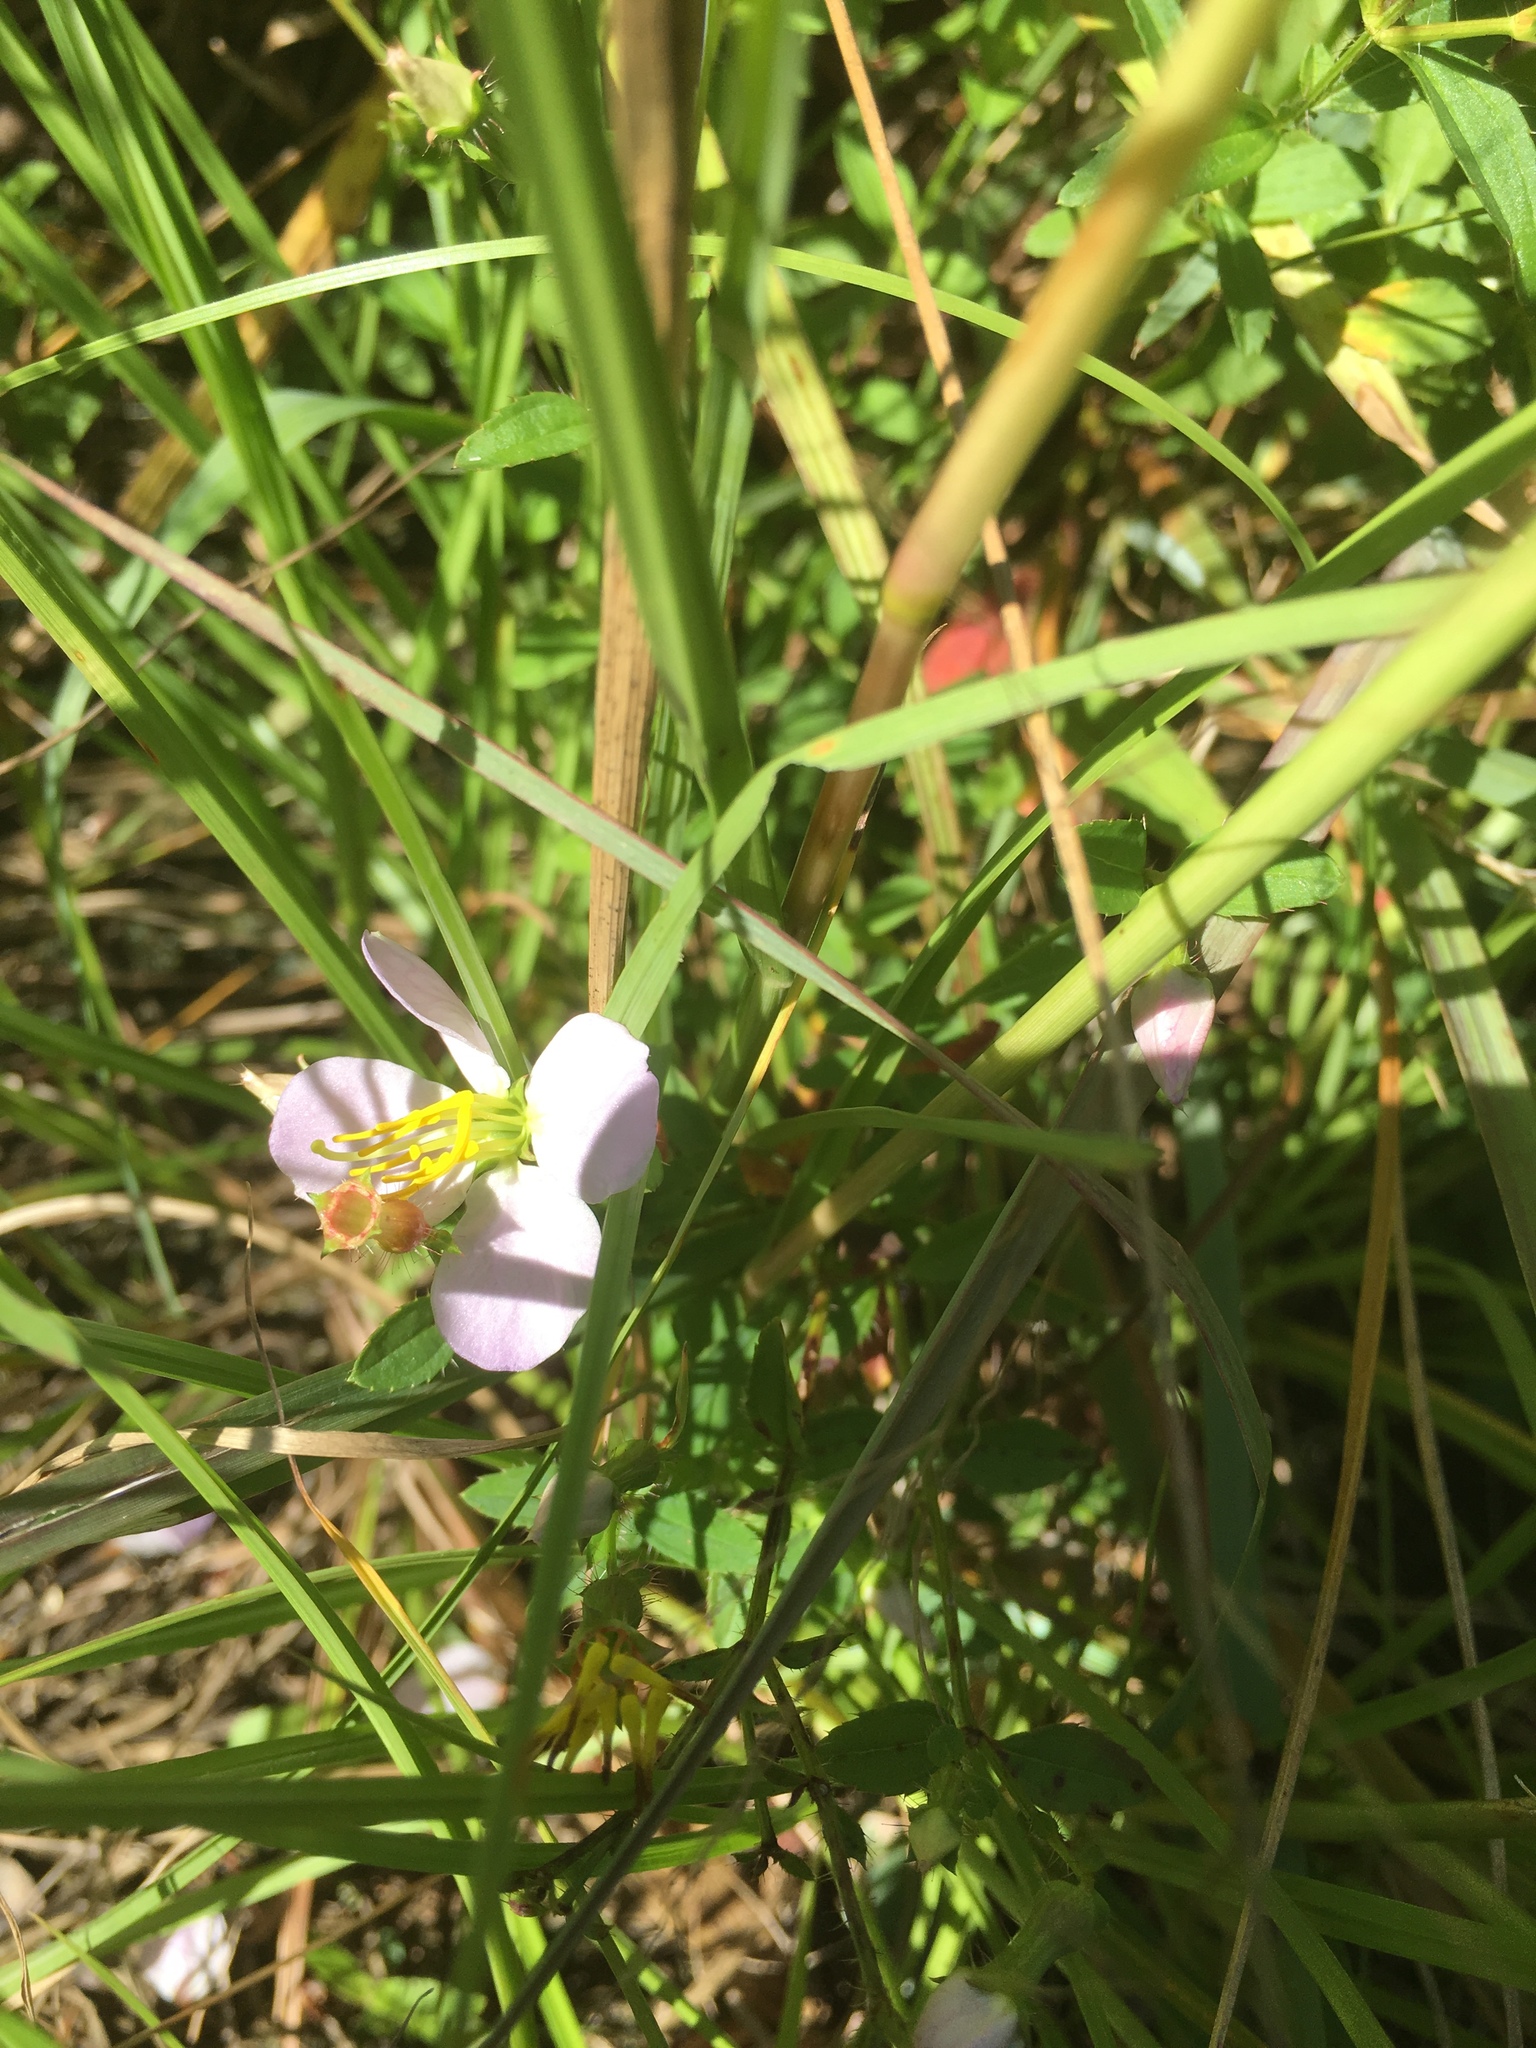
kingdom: Plantae
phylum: Tracheophyta
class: Magnoliopsida
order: Myrtales
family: Melastomataceae
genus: Rhexia
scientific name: Rhexia mariana
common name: Dull meadow-pitcher
